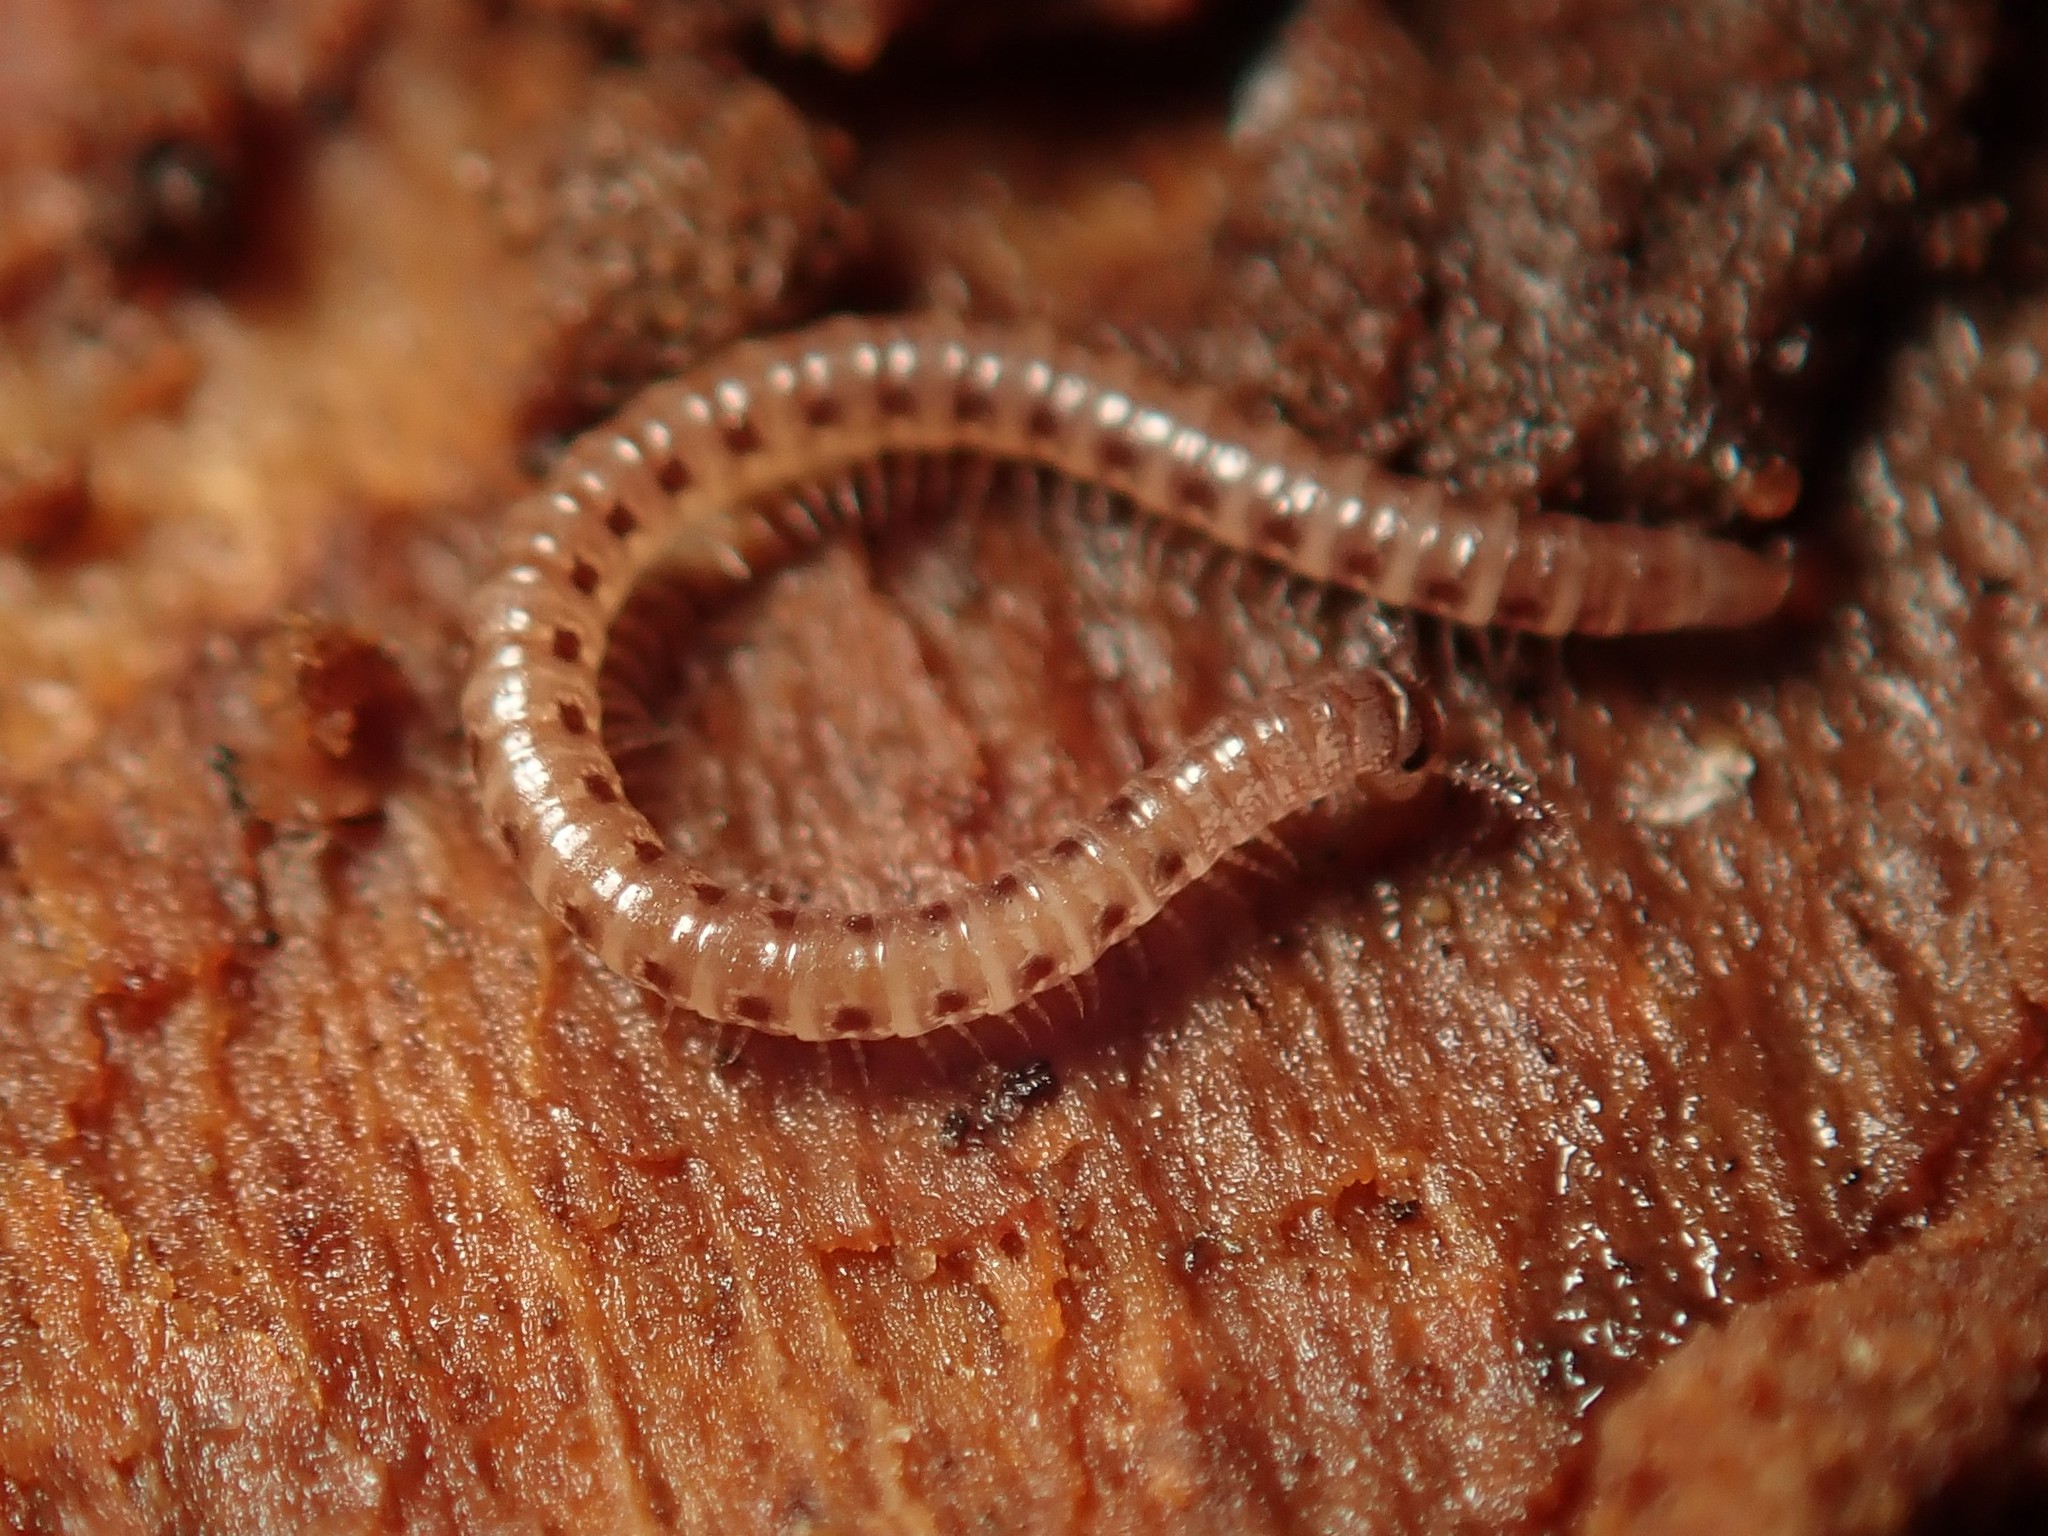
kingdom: Animalia
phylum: Arthropoda
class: Diplopoda
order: Julida
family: Nemasomatidae
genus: Nemasoma
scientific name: Nemasoma varicorne
